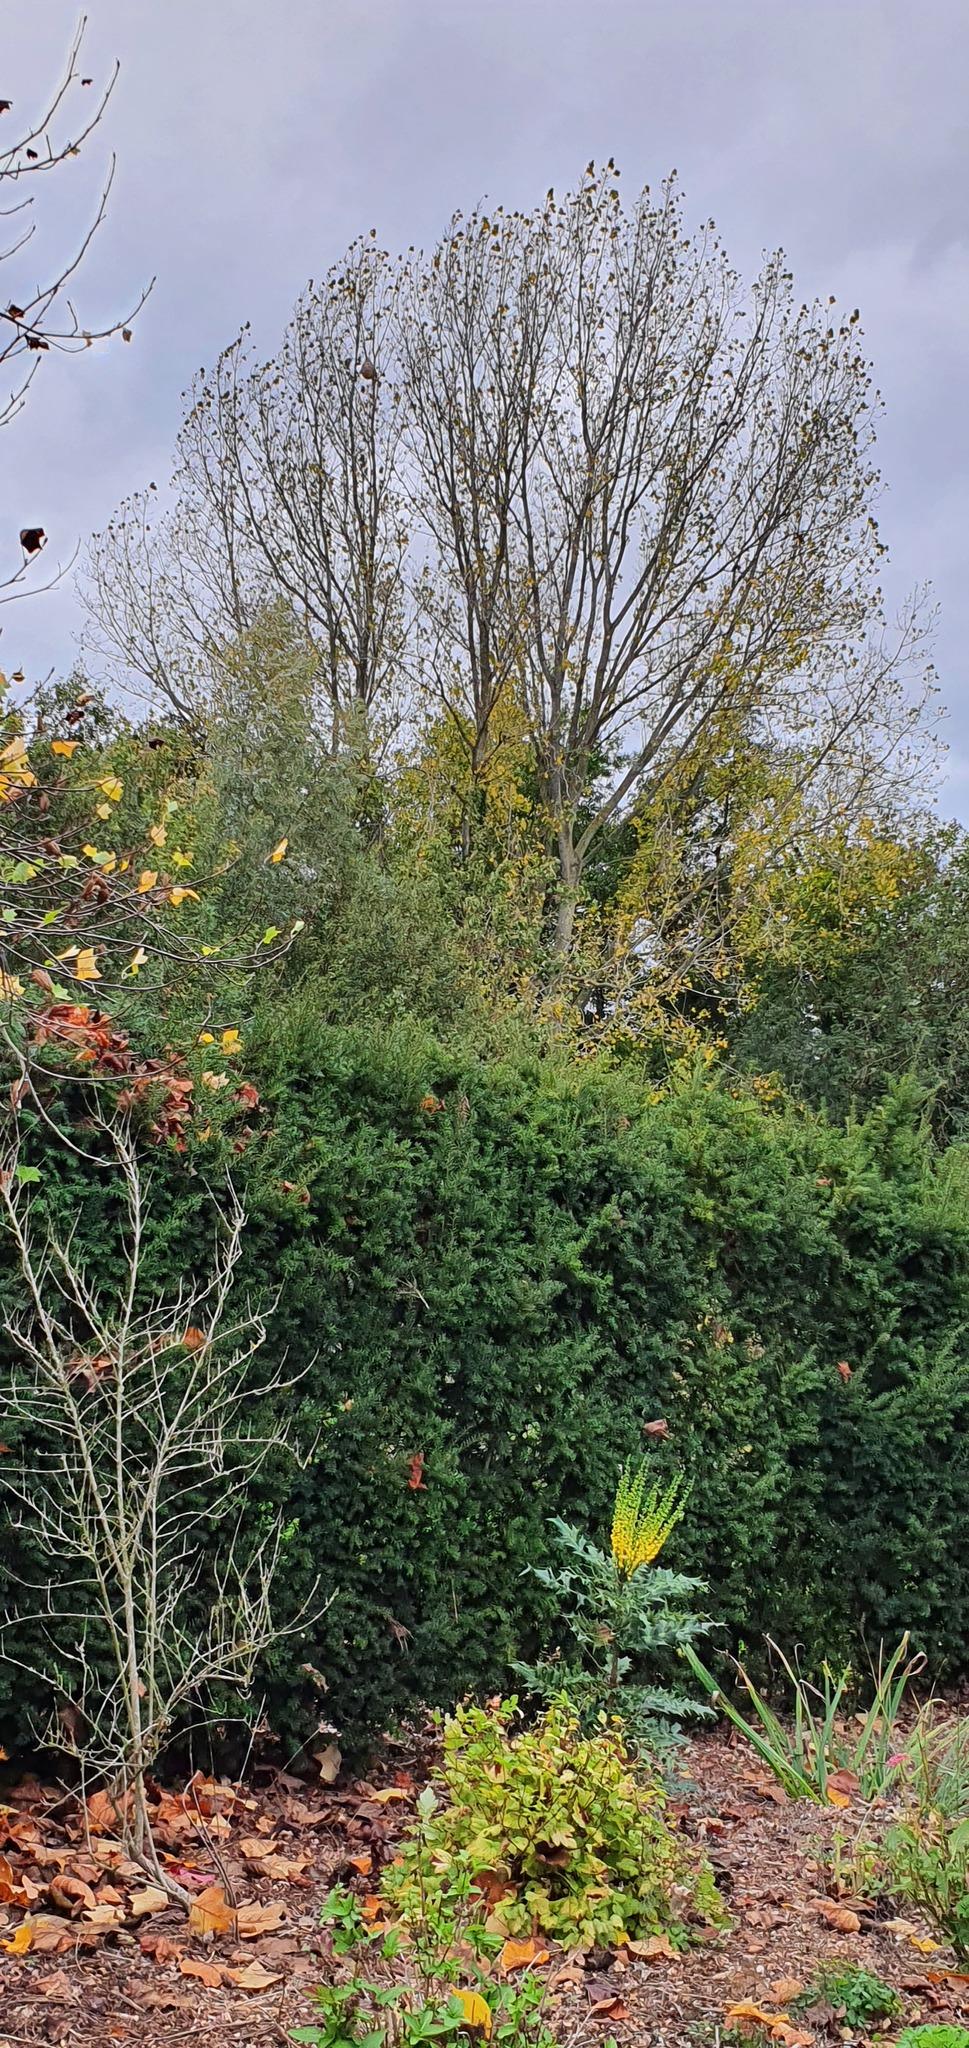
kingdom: Animalia
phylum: Arthropoda
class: Insecta
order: Hymenoptera
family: Vespidae
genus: Vespa
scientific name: Vespa velutina
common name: Asian hornet
